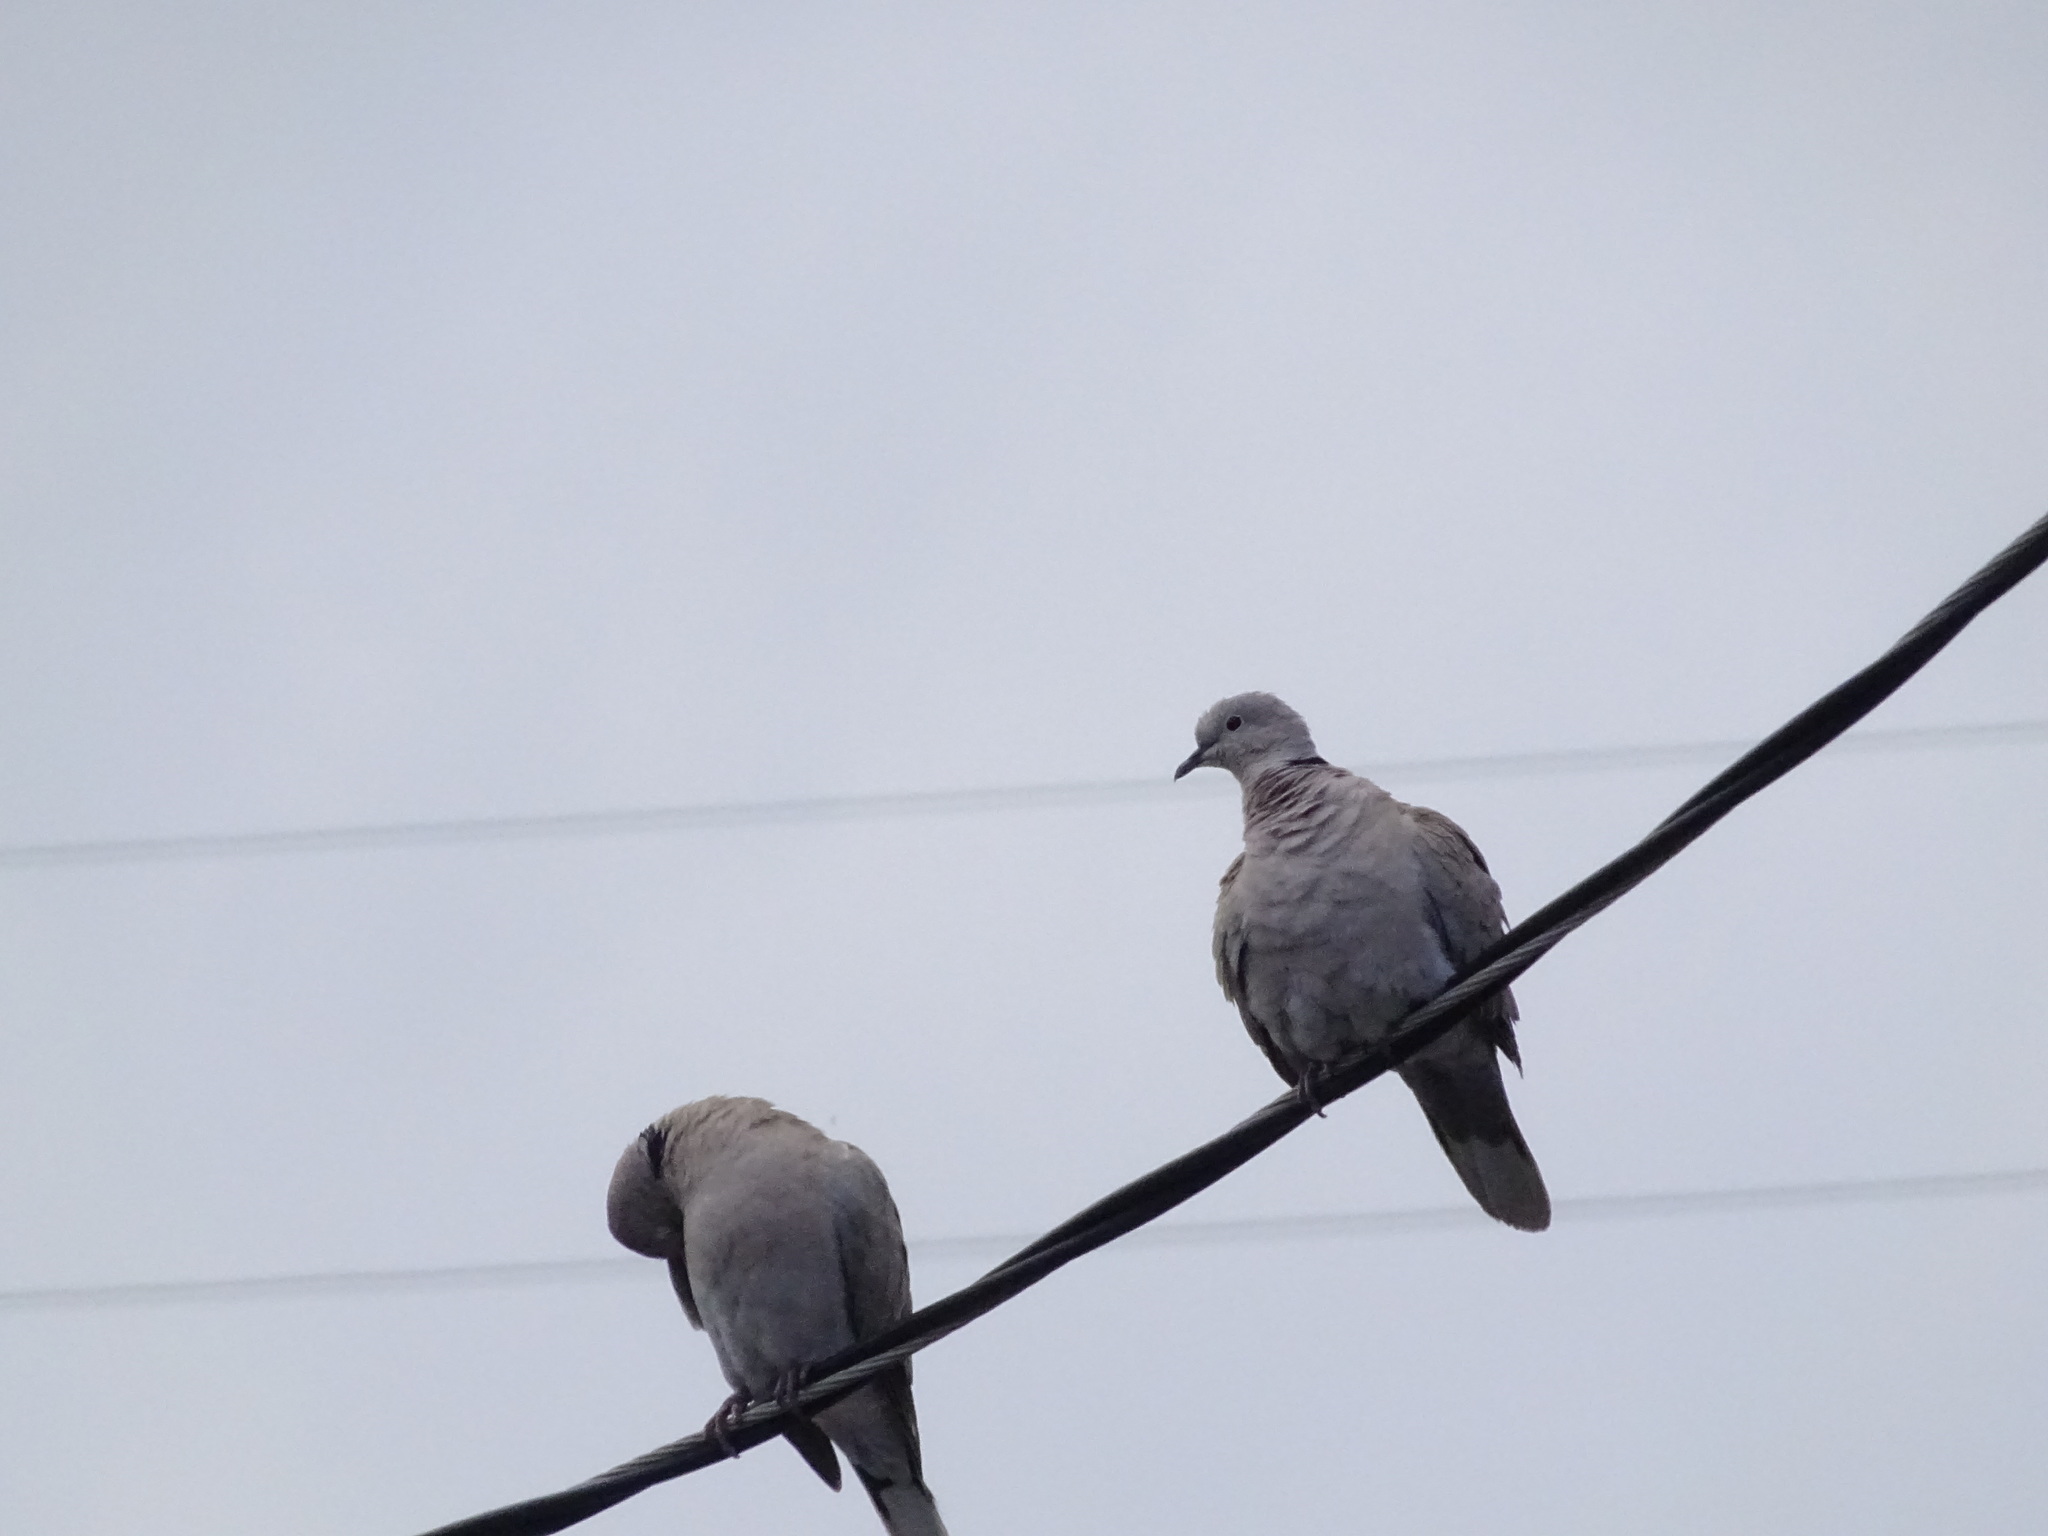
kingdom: Animalia
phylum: Chordata
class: Aves
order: Columbiformes
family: Columbidae
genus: Streptopelia
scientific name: Streptopelia decaocto
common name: Eurasian collared dove
